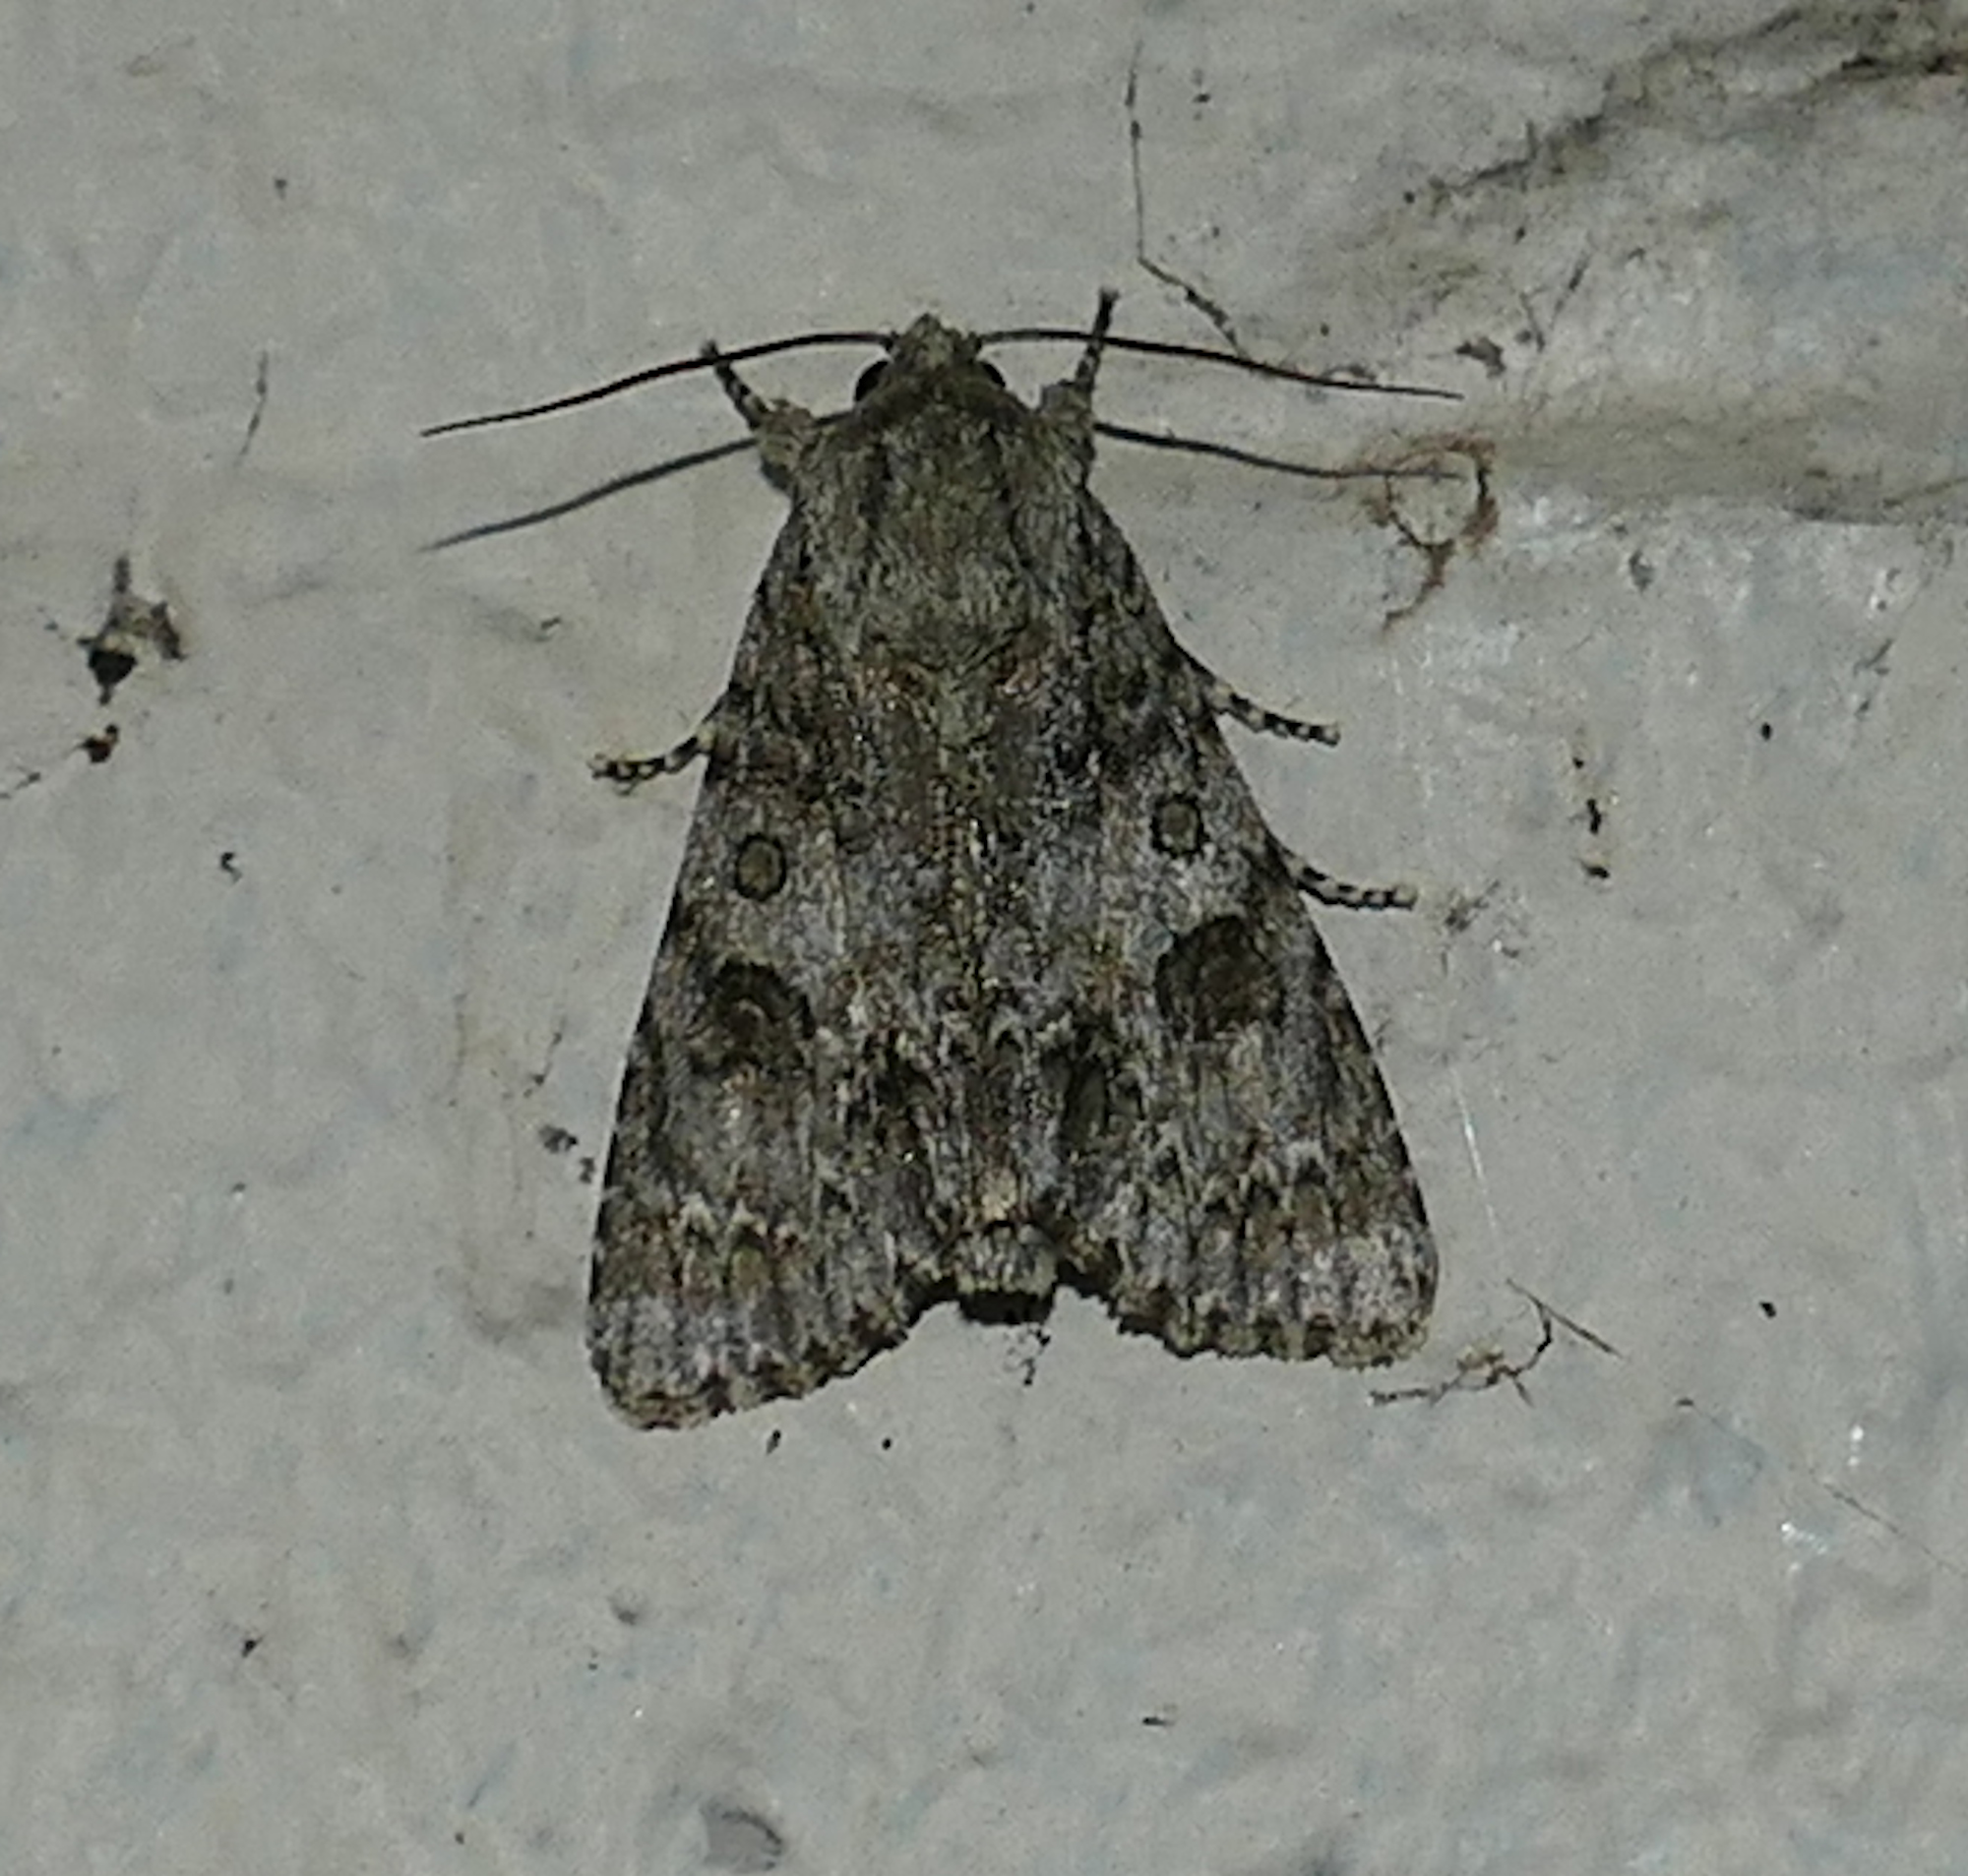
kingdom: Animalia
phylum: Arthropoda
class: Insecta
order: Lepidoptera
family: Noctuidae
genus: Acronicta
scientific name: Acronicta rubricoma
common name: Hackberry dagger
